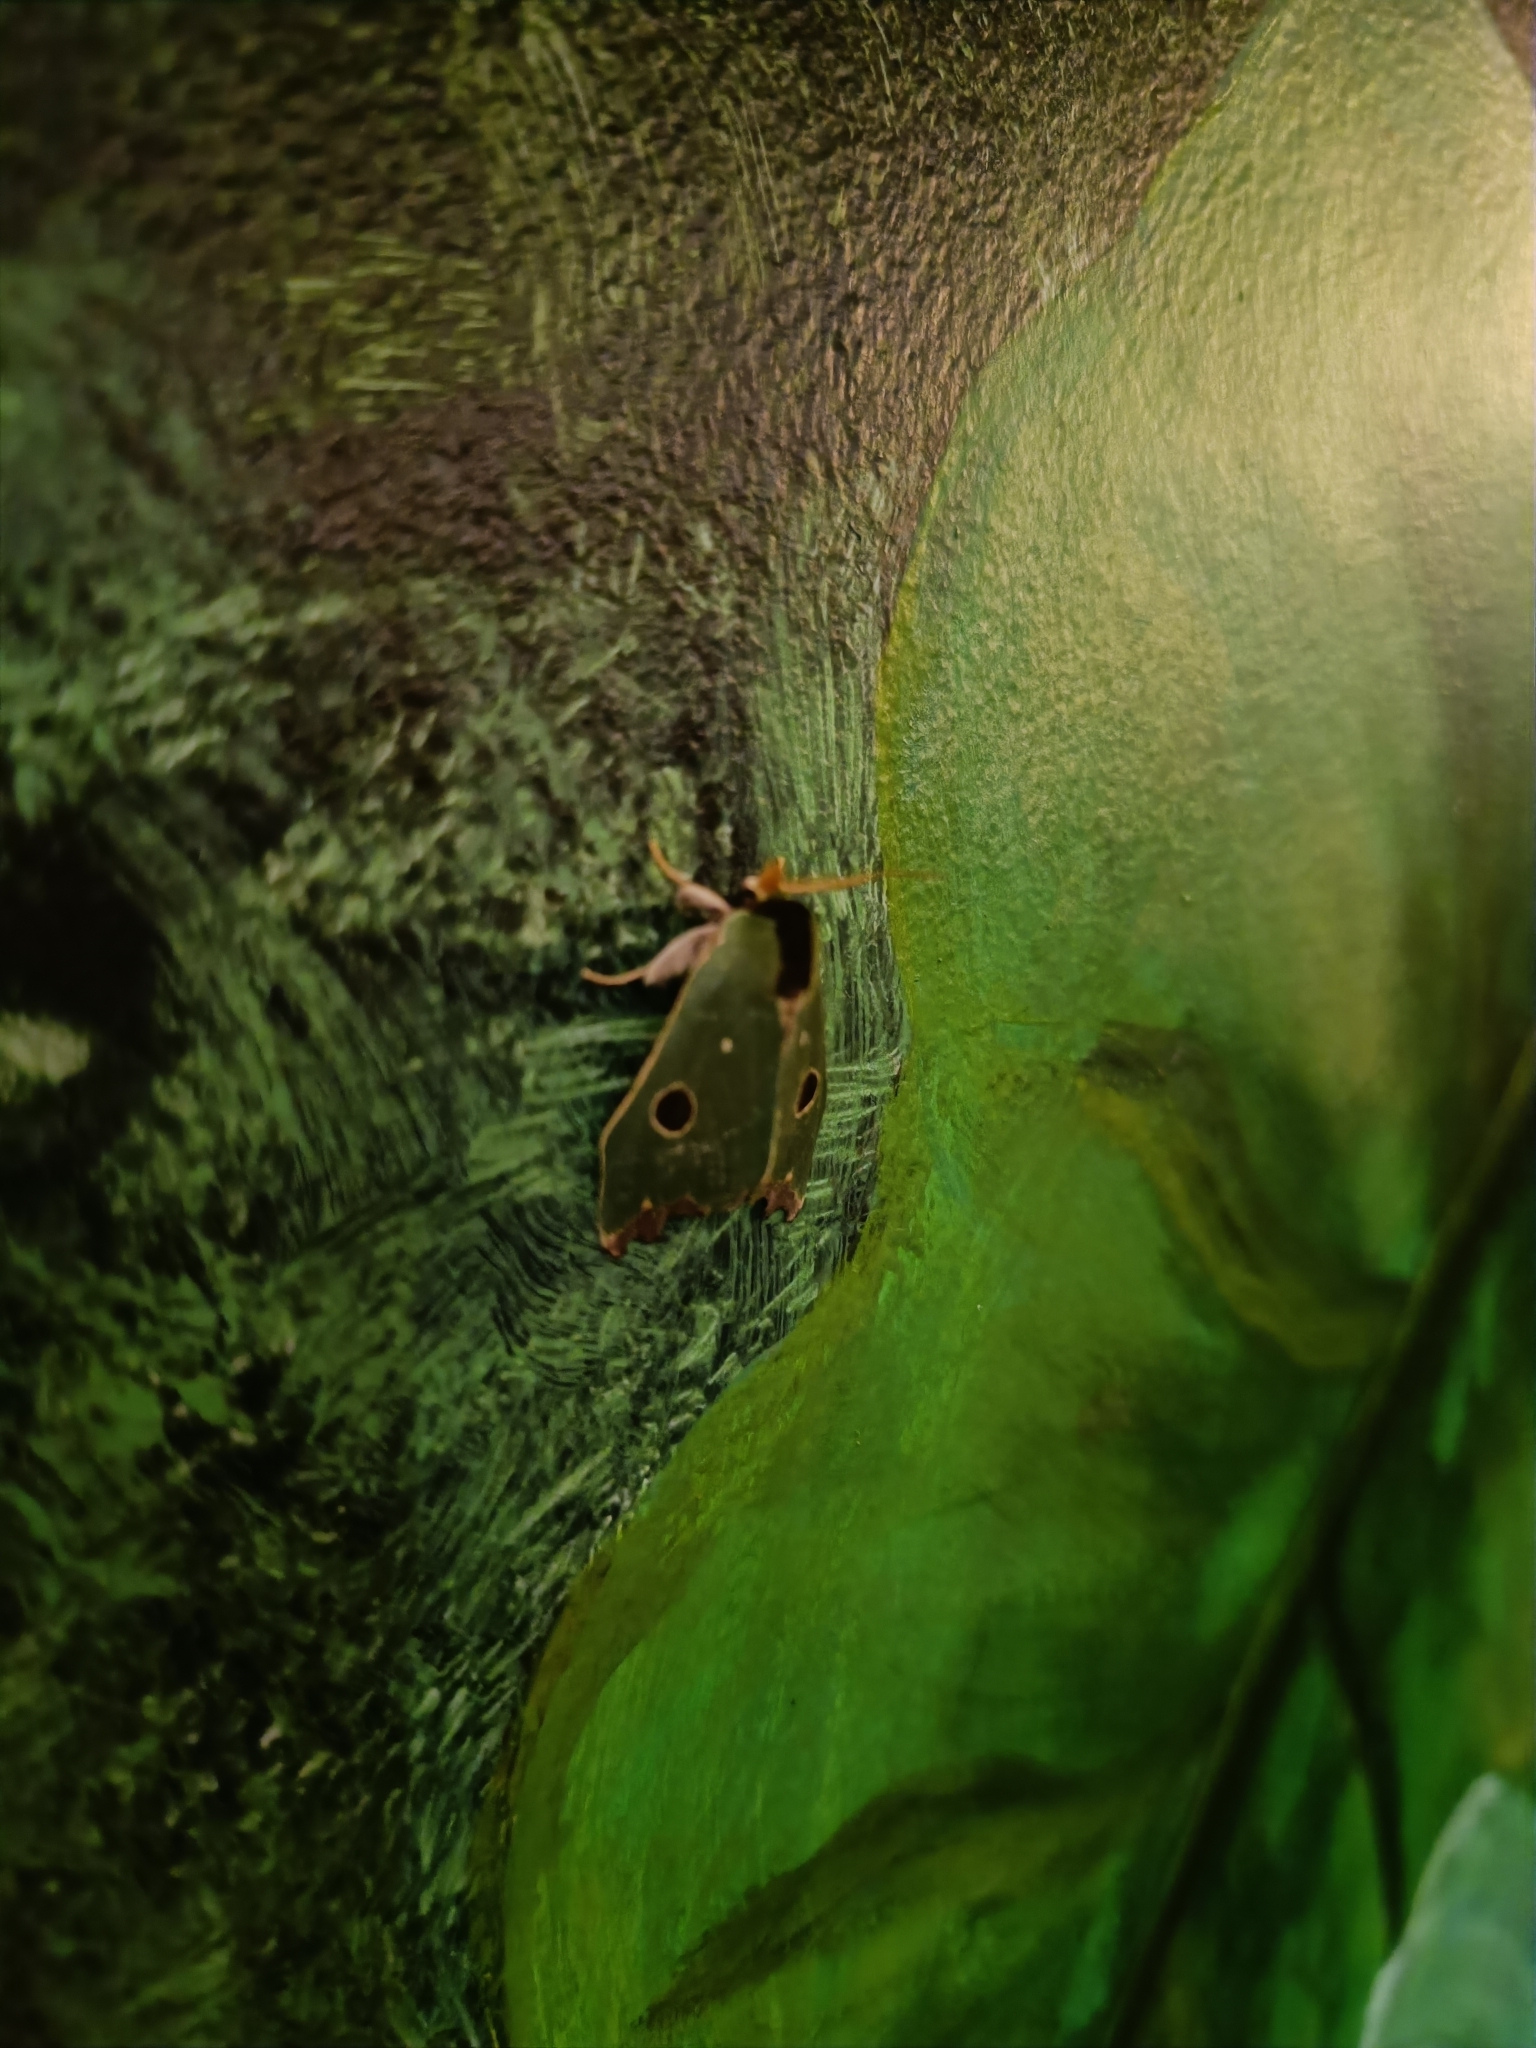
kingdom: Animalia
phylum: Arthropoda
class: Insecta
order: Lepidoptera
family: Notodontidae
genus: Rosema
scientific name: Rosema deolis
